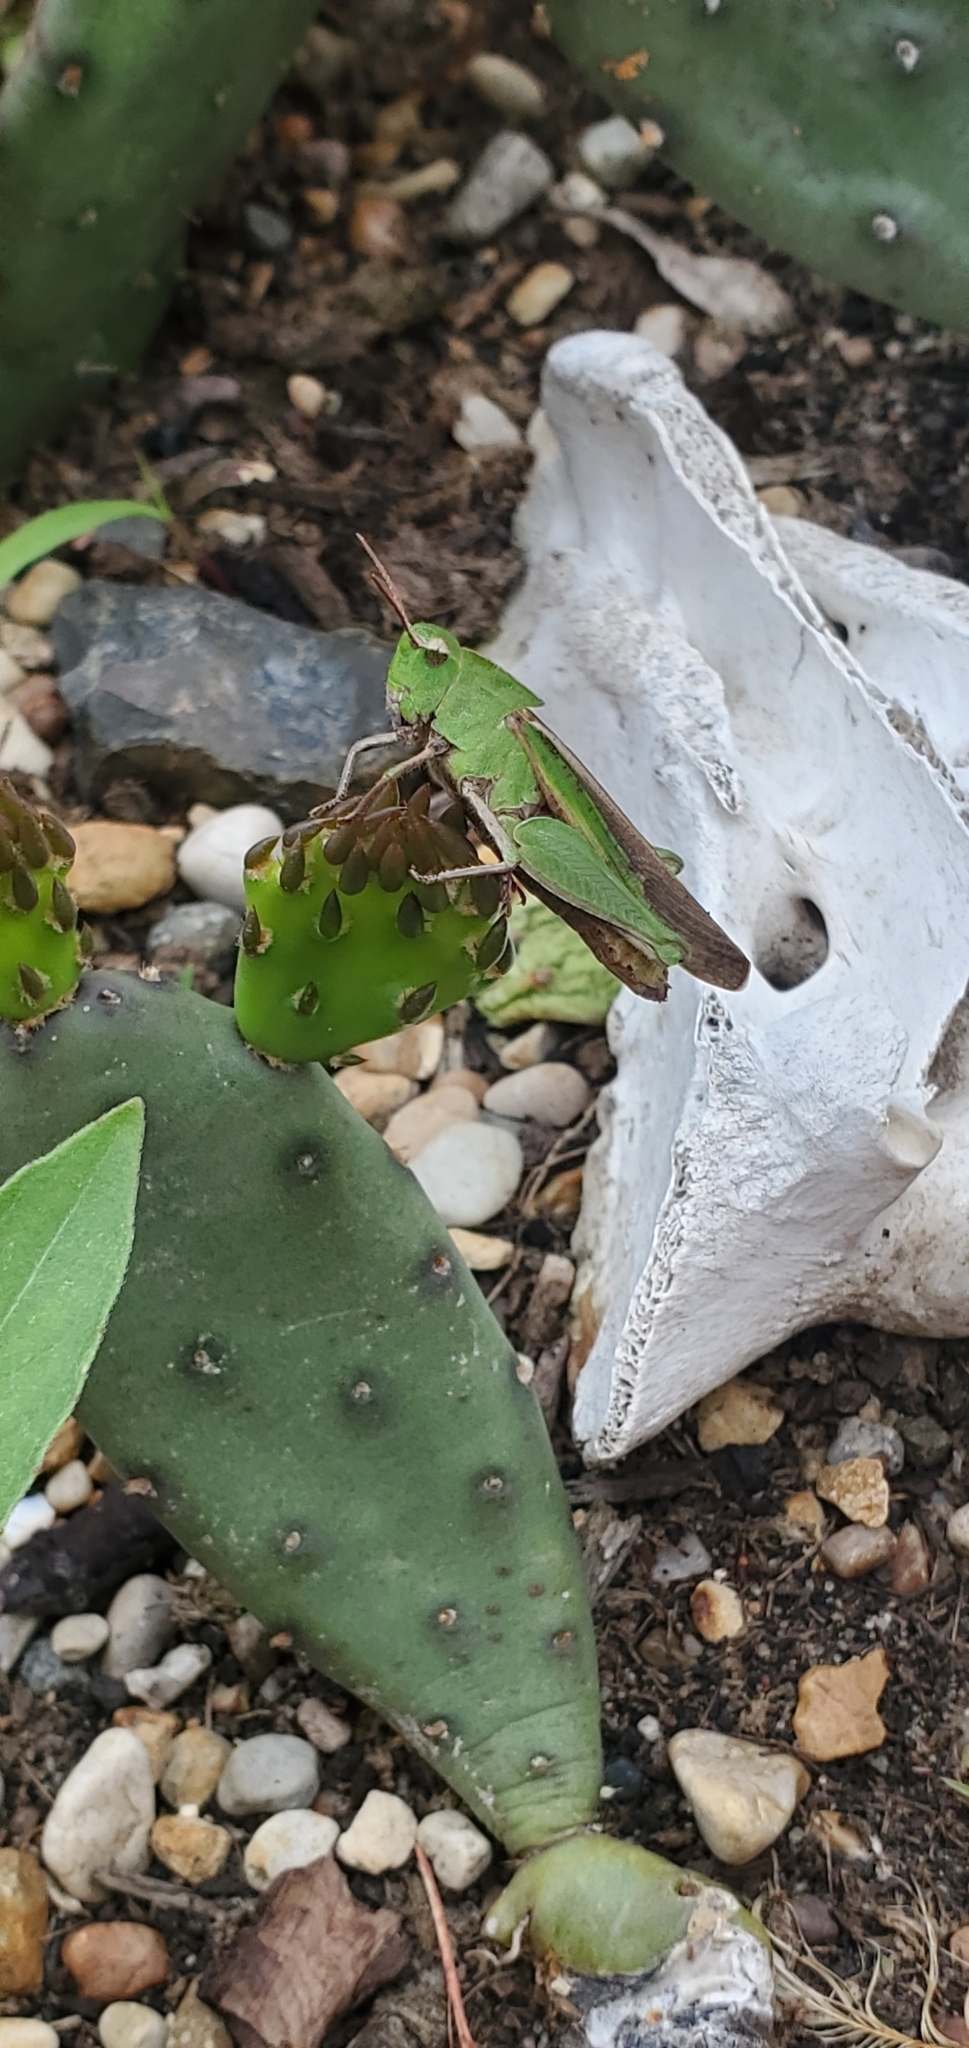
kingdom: Animalia
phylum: Arthropoda
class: Insecta
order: Orthoptera
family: Acrididae
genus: Chortophaga
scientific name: Chortophaga viridifasciata
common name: Green-striped grasshopper
